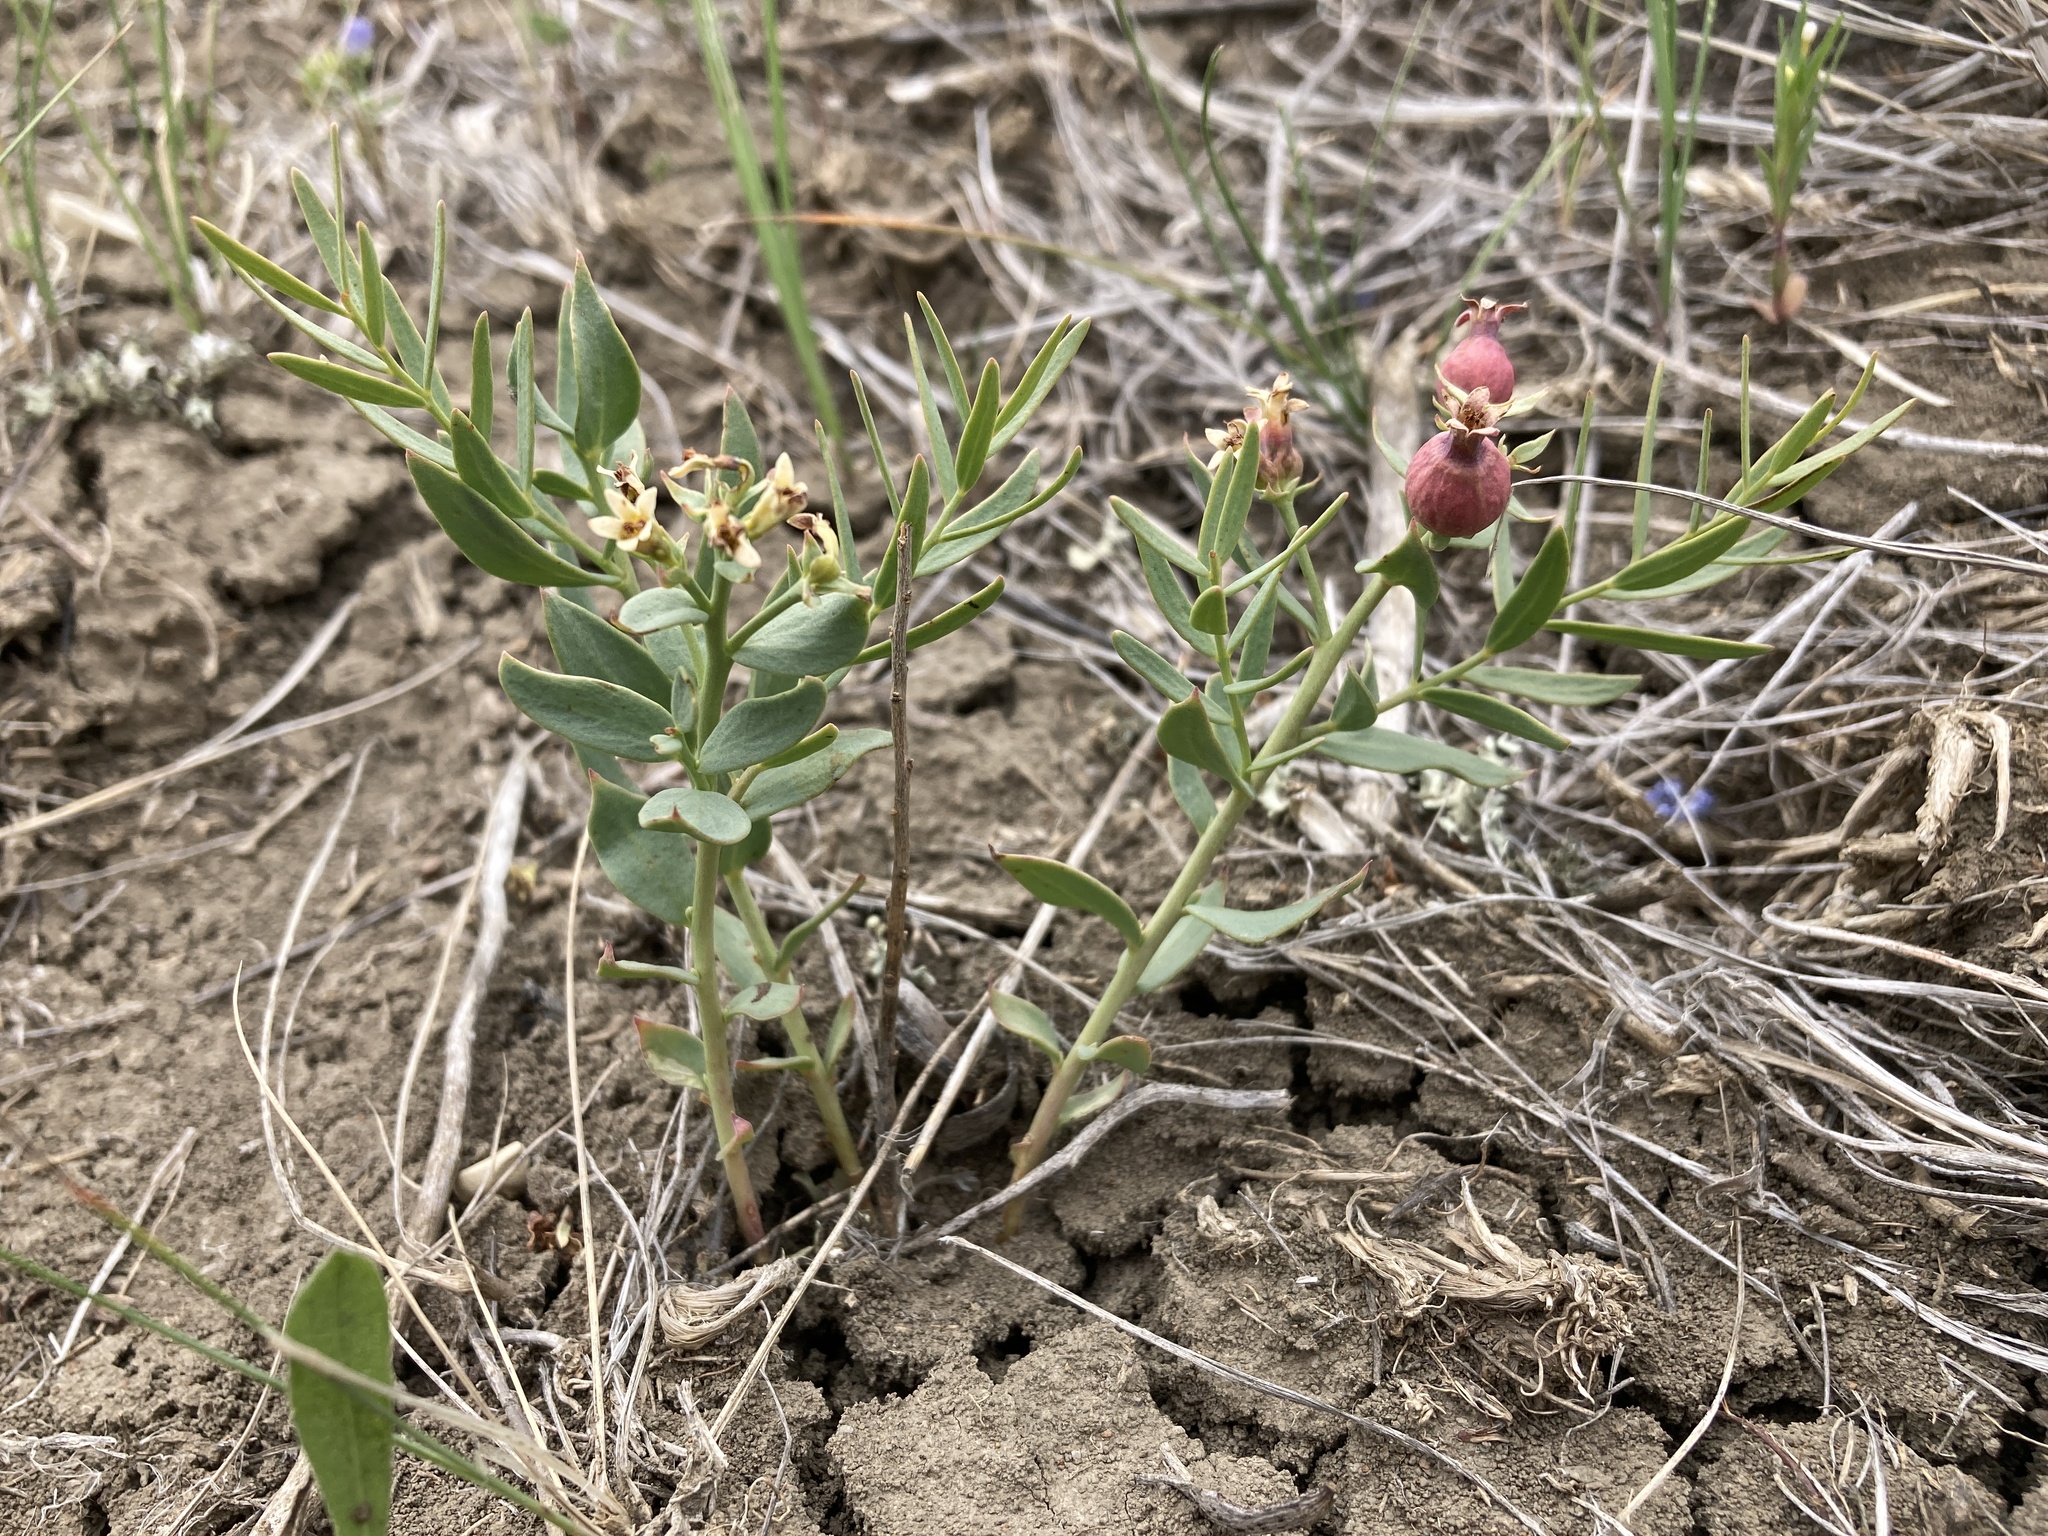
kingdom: Plantae
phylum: Tracheophyta
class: Magnoliopsida
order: Santalales
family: Comandraceae
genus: Comandra
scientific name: Comandra umbellata
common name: Bastard toadflax
